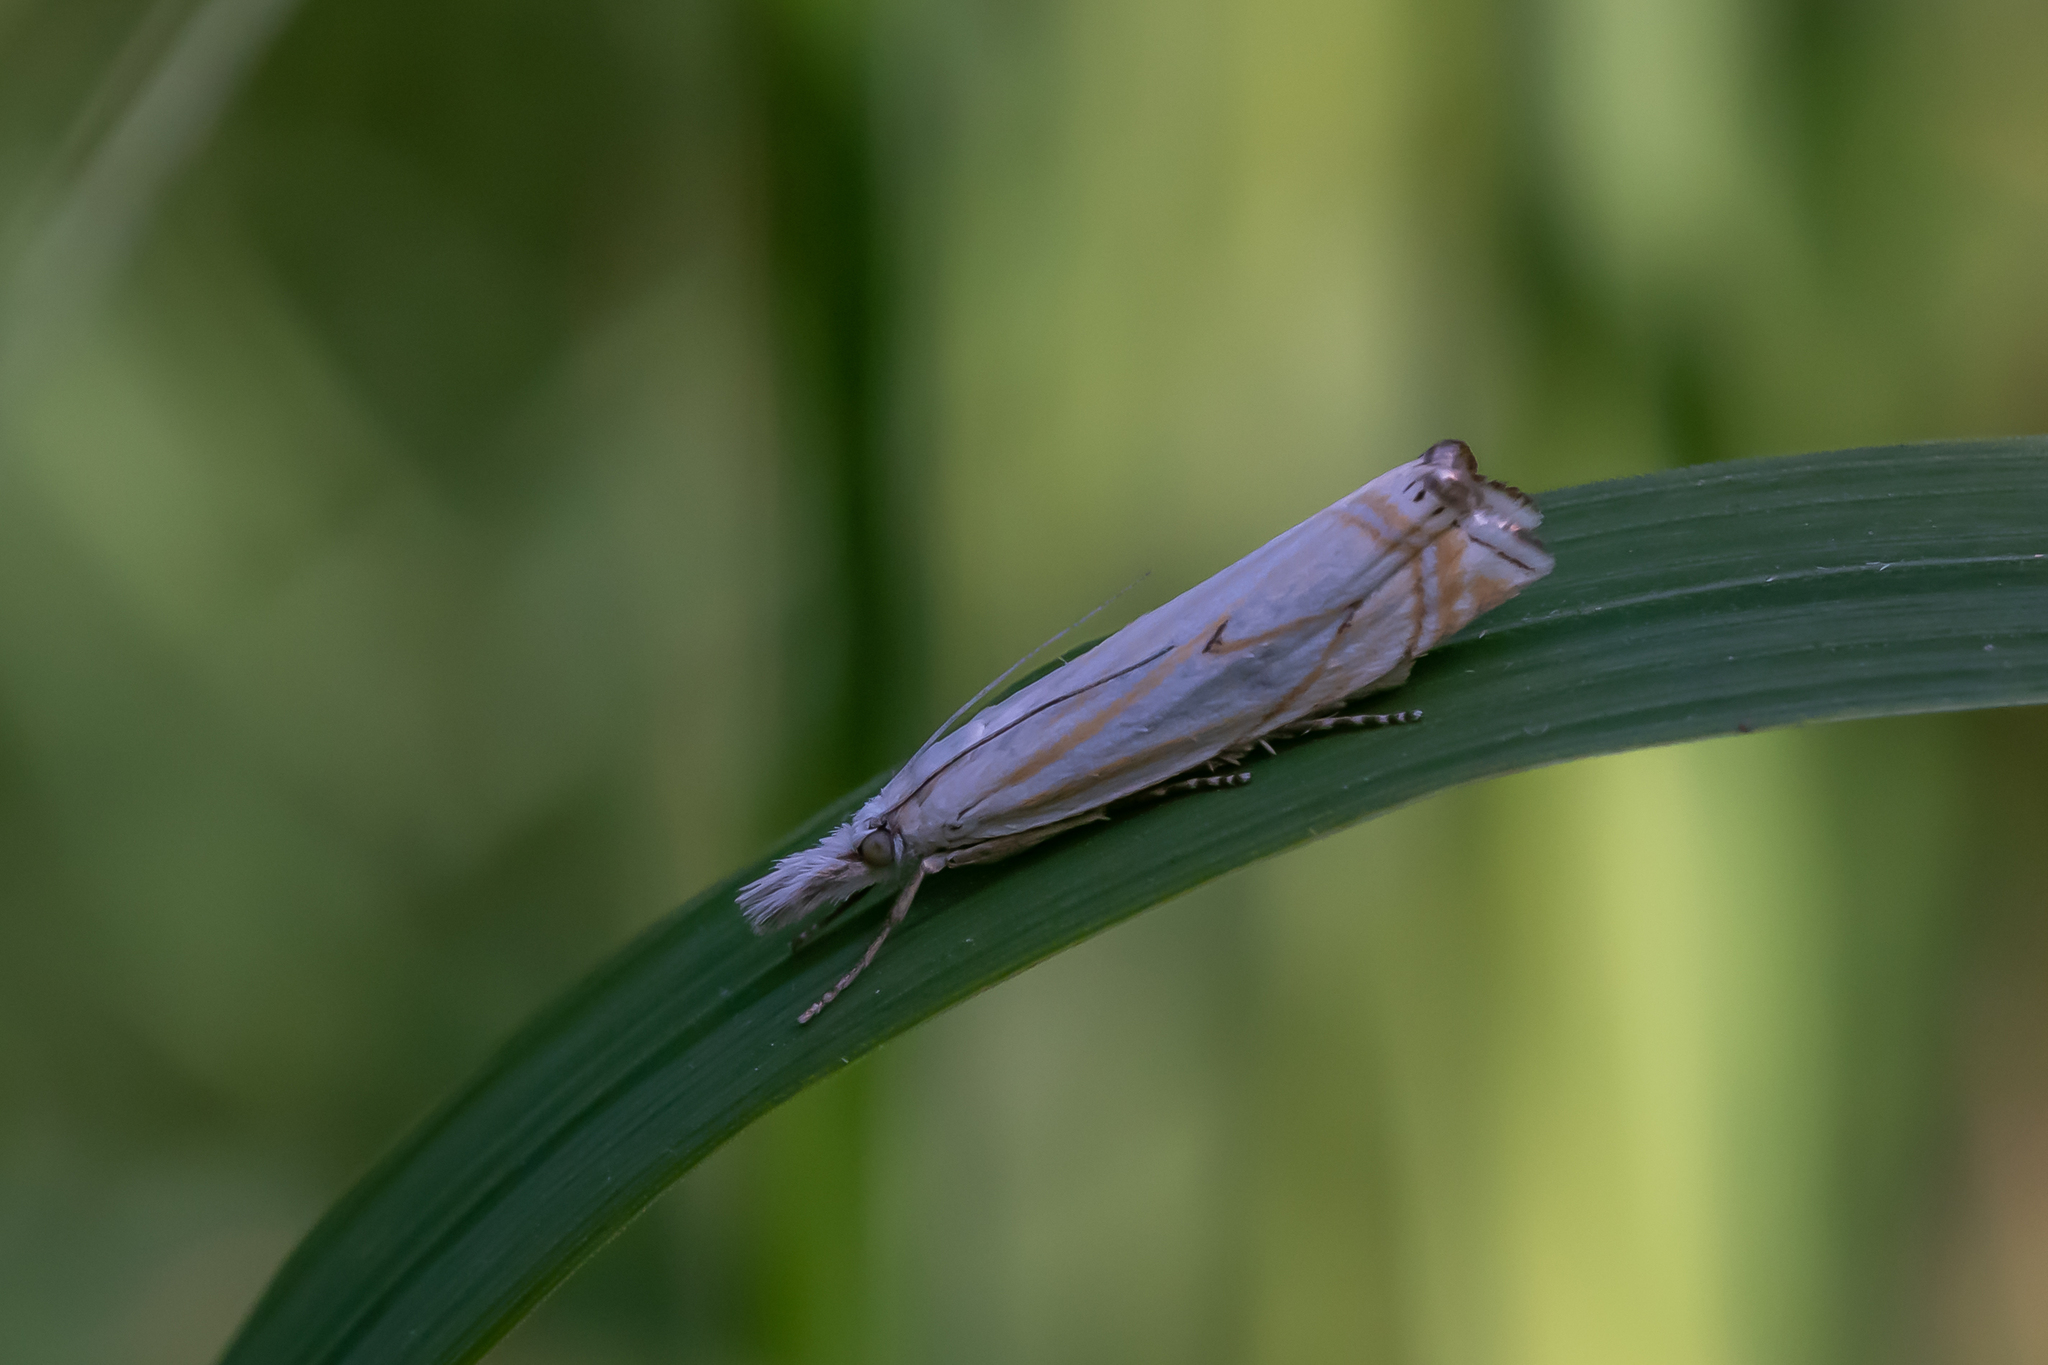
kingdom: Animalia
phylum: Arthropoda
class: Insecta
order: Lepidoptera
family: Crambidae
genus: Crambus
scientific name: Crambus nemorella
